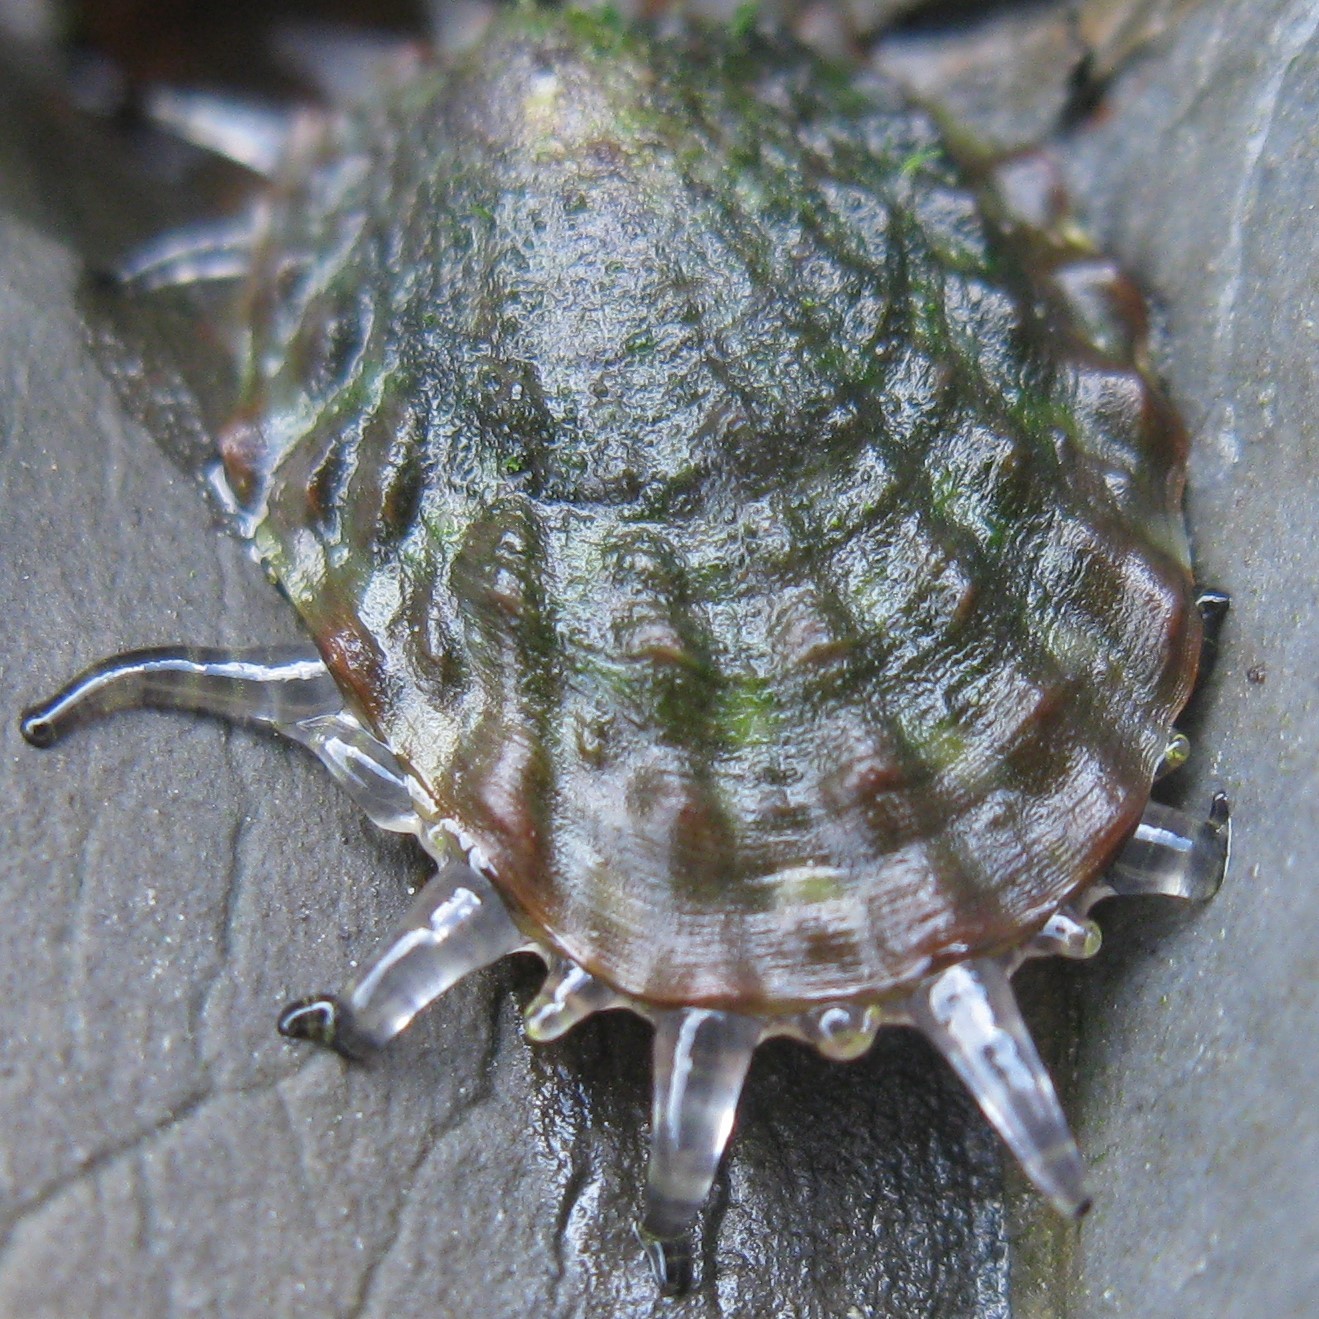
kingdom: Animalia
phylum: Mollusca
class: Gastropoda
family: Nacellidae
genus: Cellana
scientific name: Cellana denticulata
